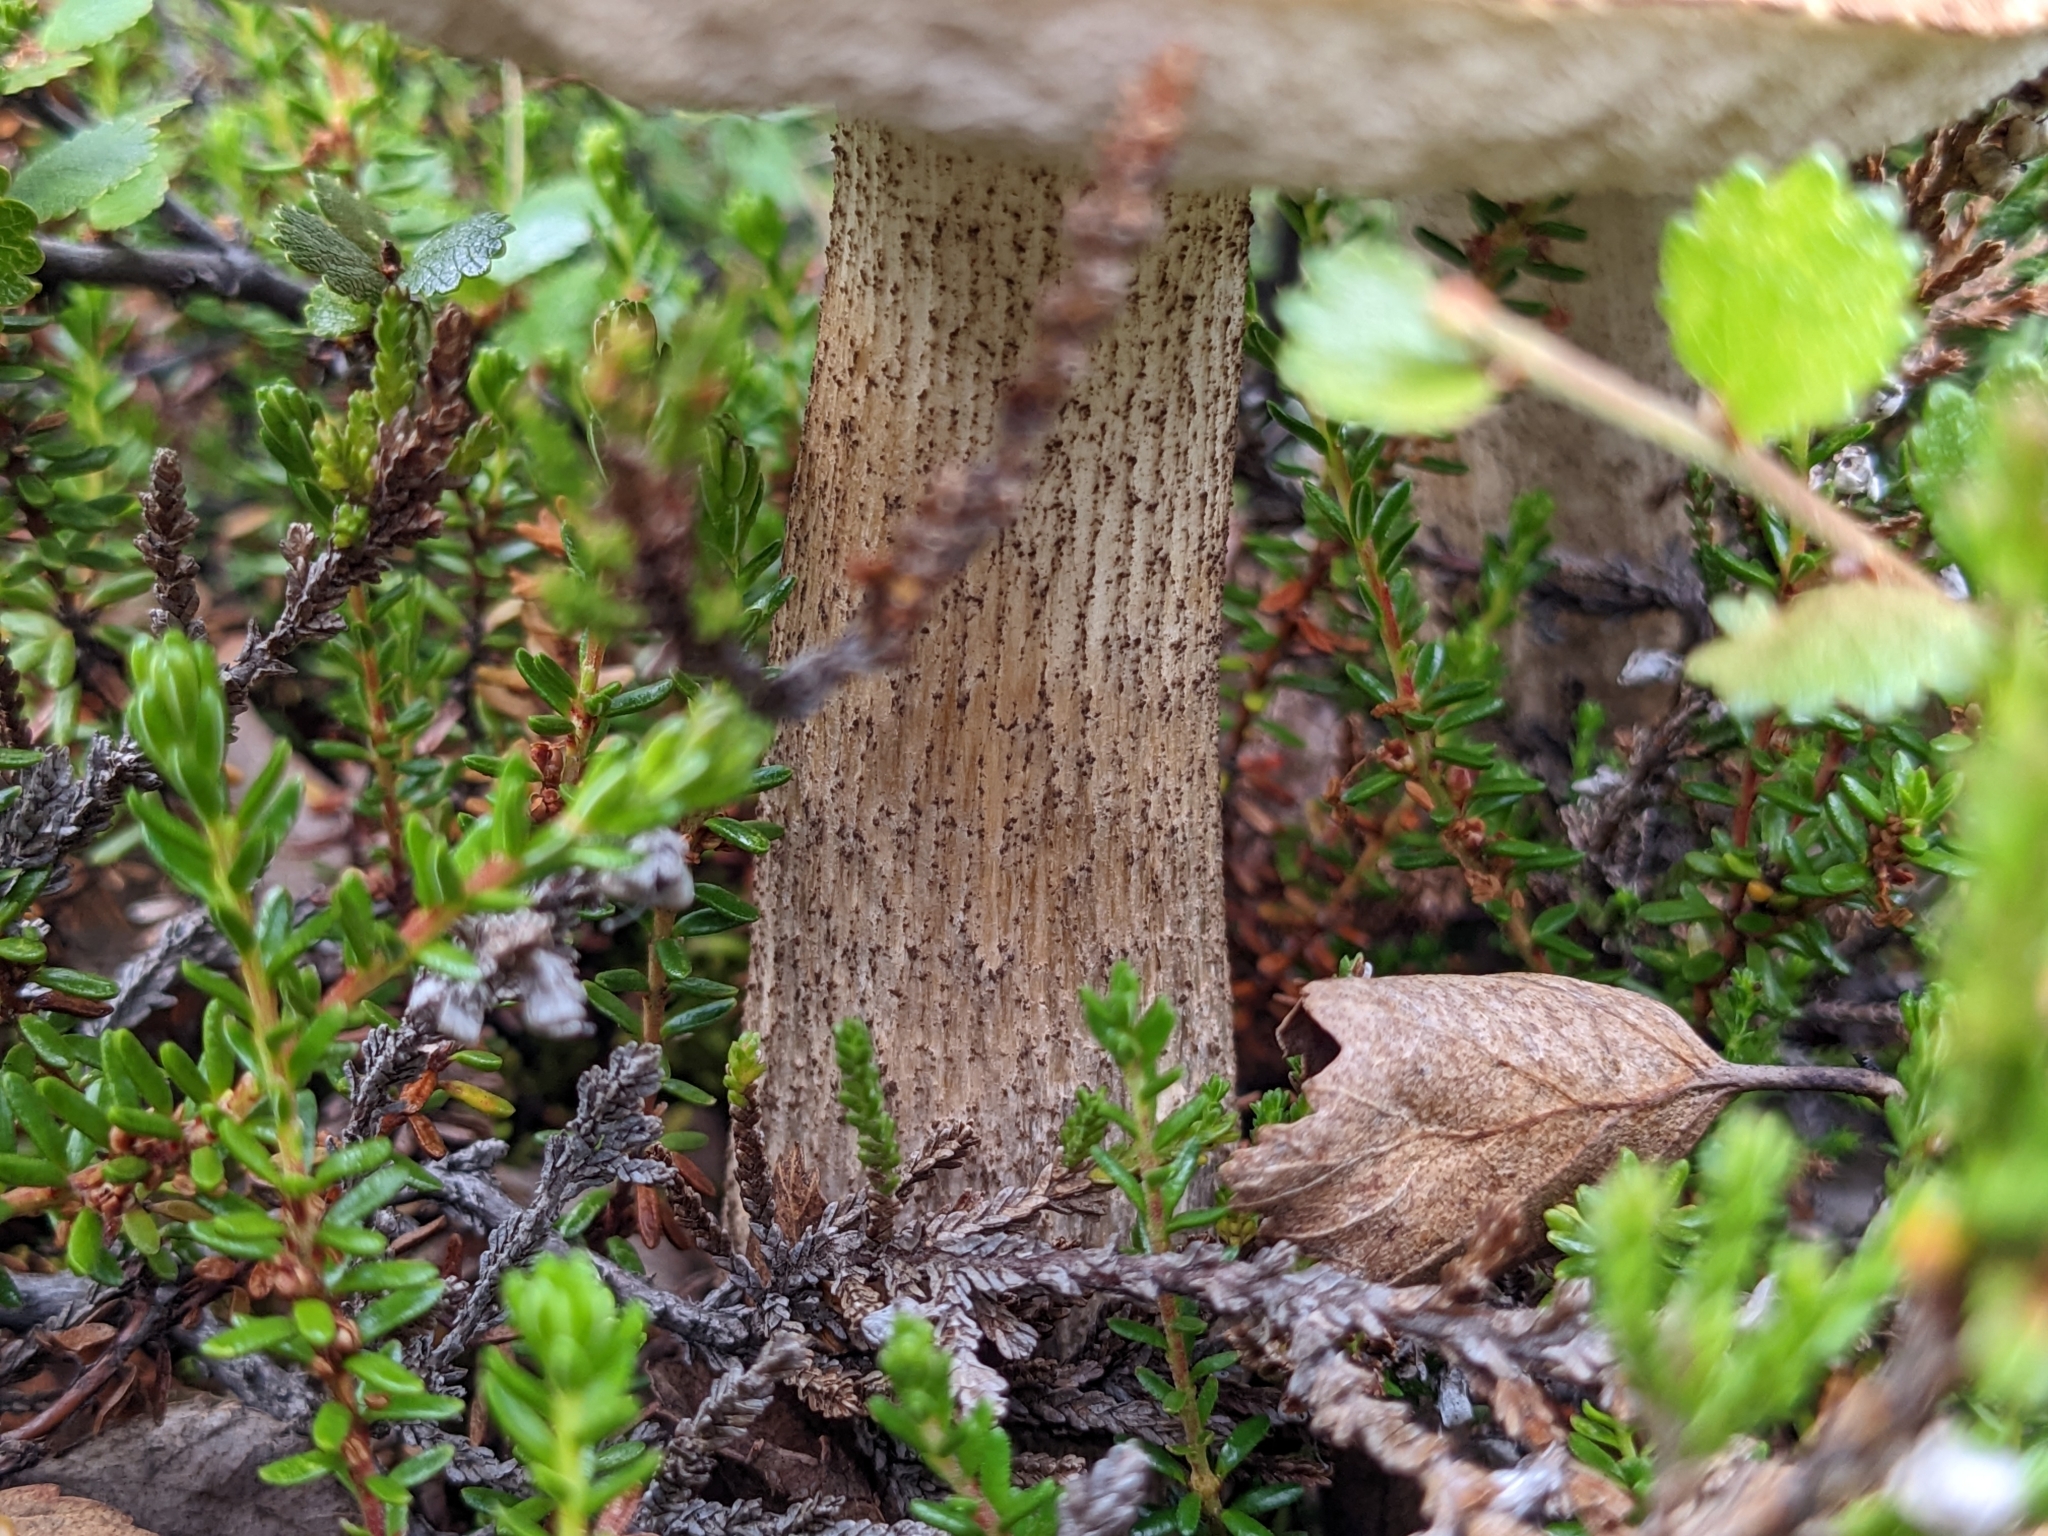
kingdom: Fungi
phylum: Basidiomycota
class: Agaricomycetes
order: Boletales
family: Boletaceae
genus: Leccinum
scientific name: Leccinum scabrum
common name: Blushing bolete
